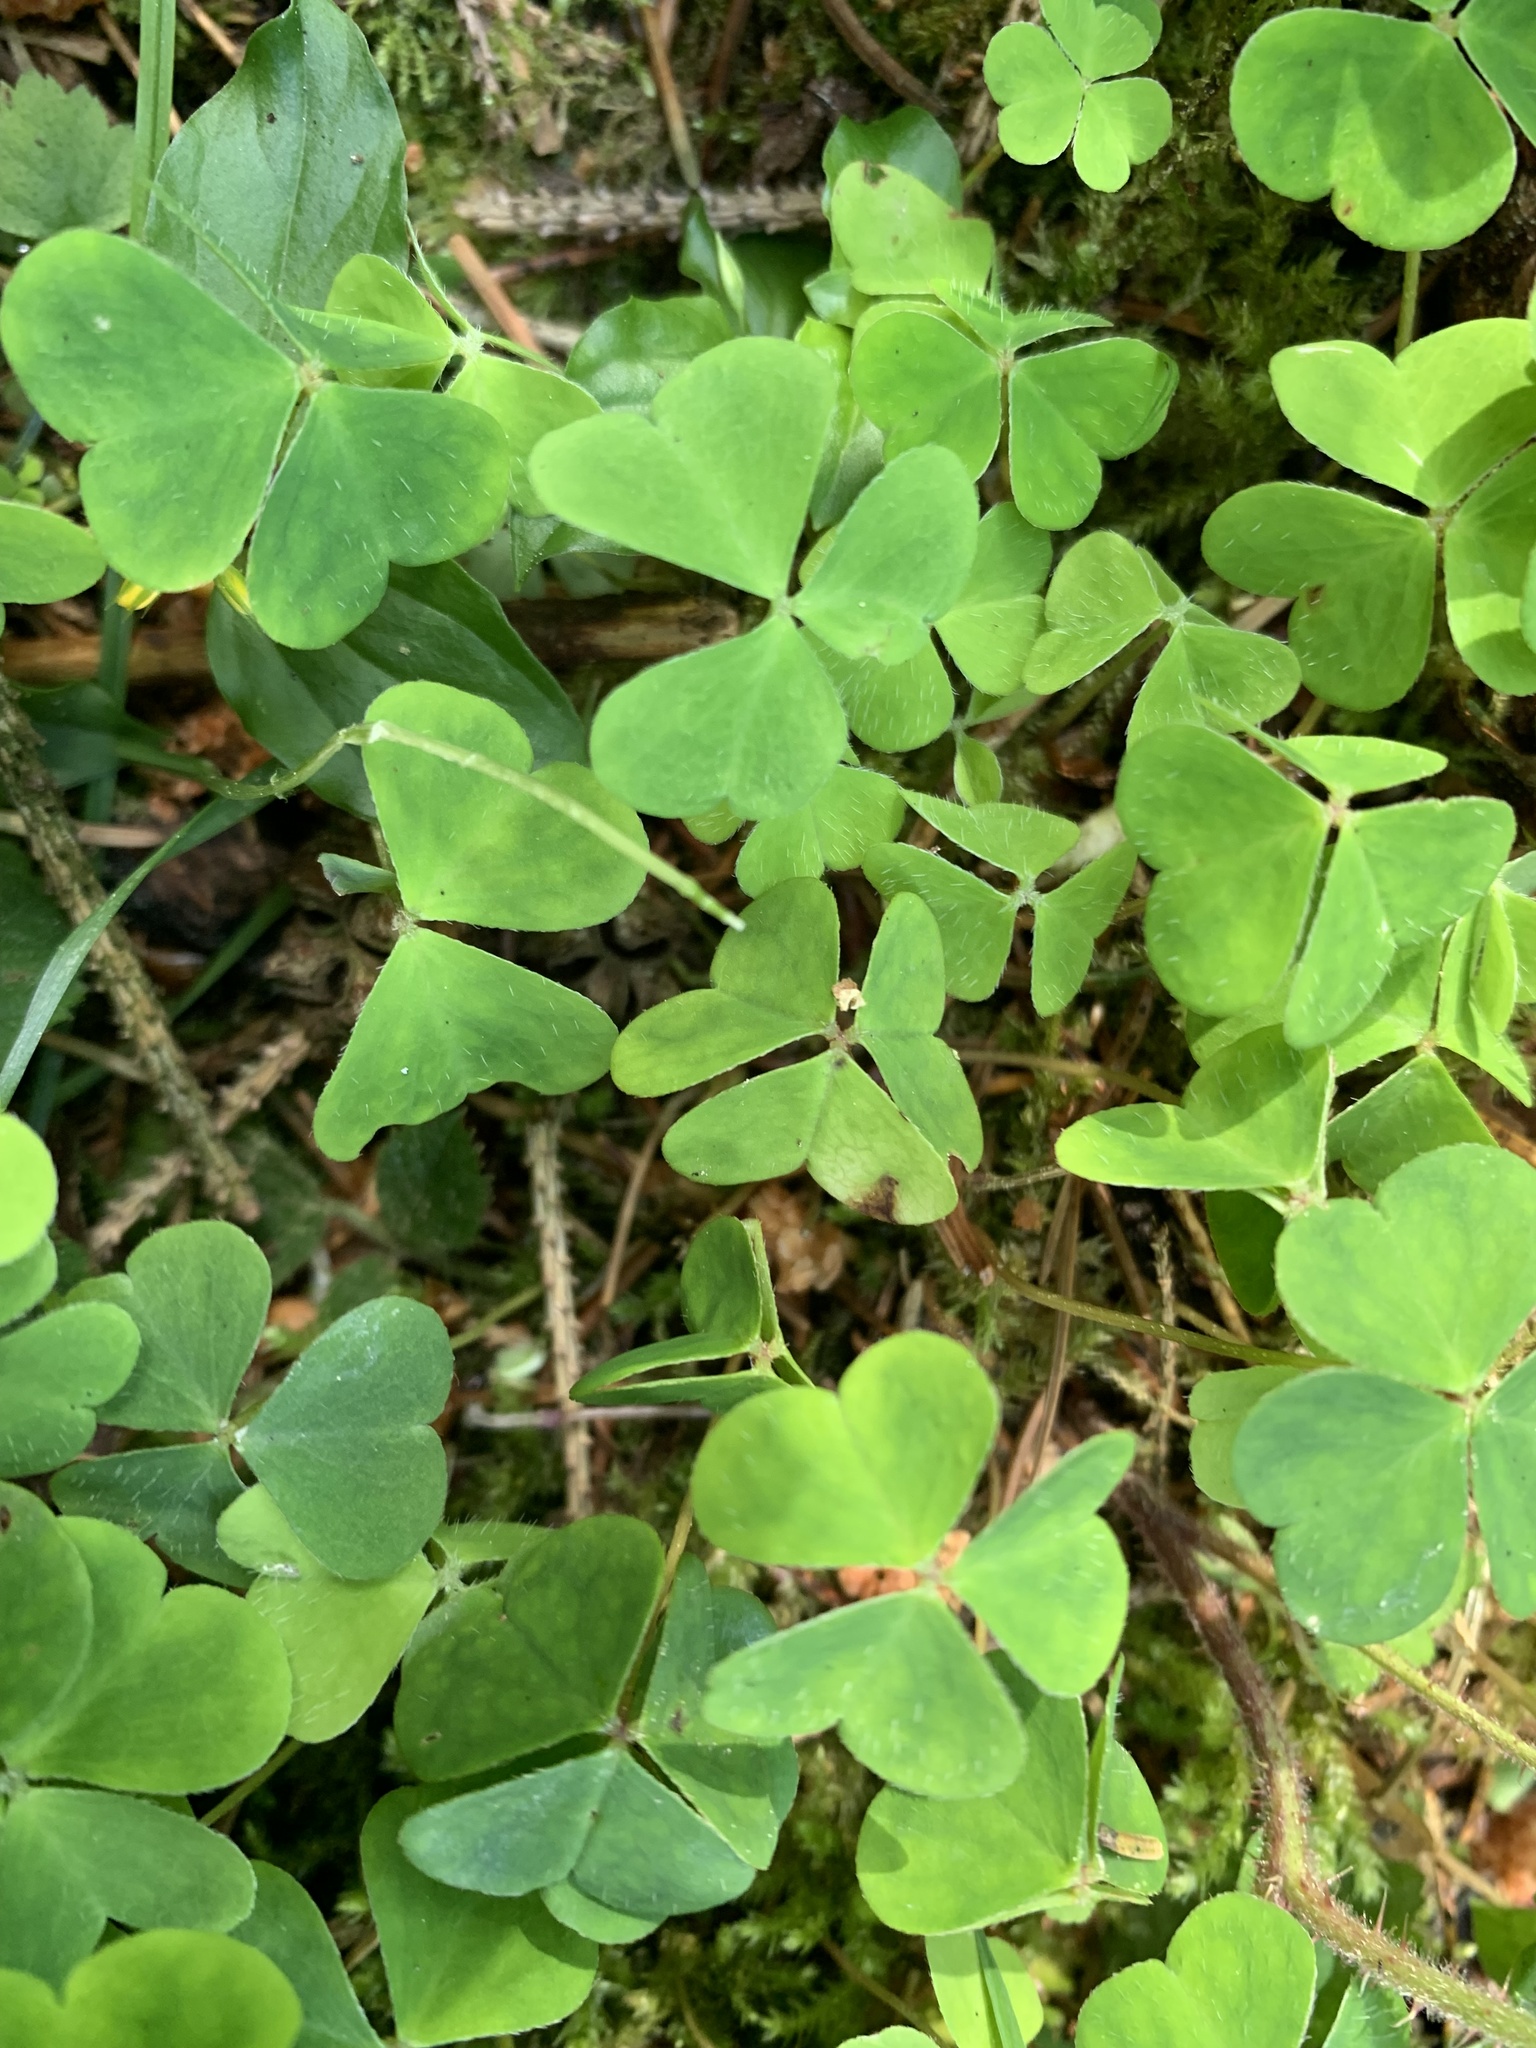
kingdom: Plantae
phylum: Tracheophyta
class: Magnoliopsida
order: Oxalidales
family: Oxalidaceae
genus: Oxalis
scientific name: Oxalis acetosella
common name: Wood-sorrel
